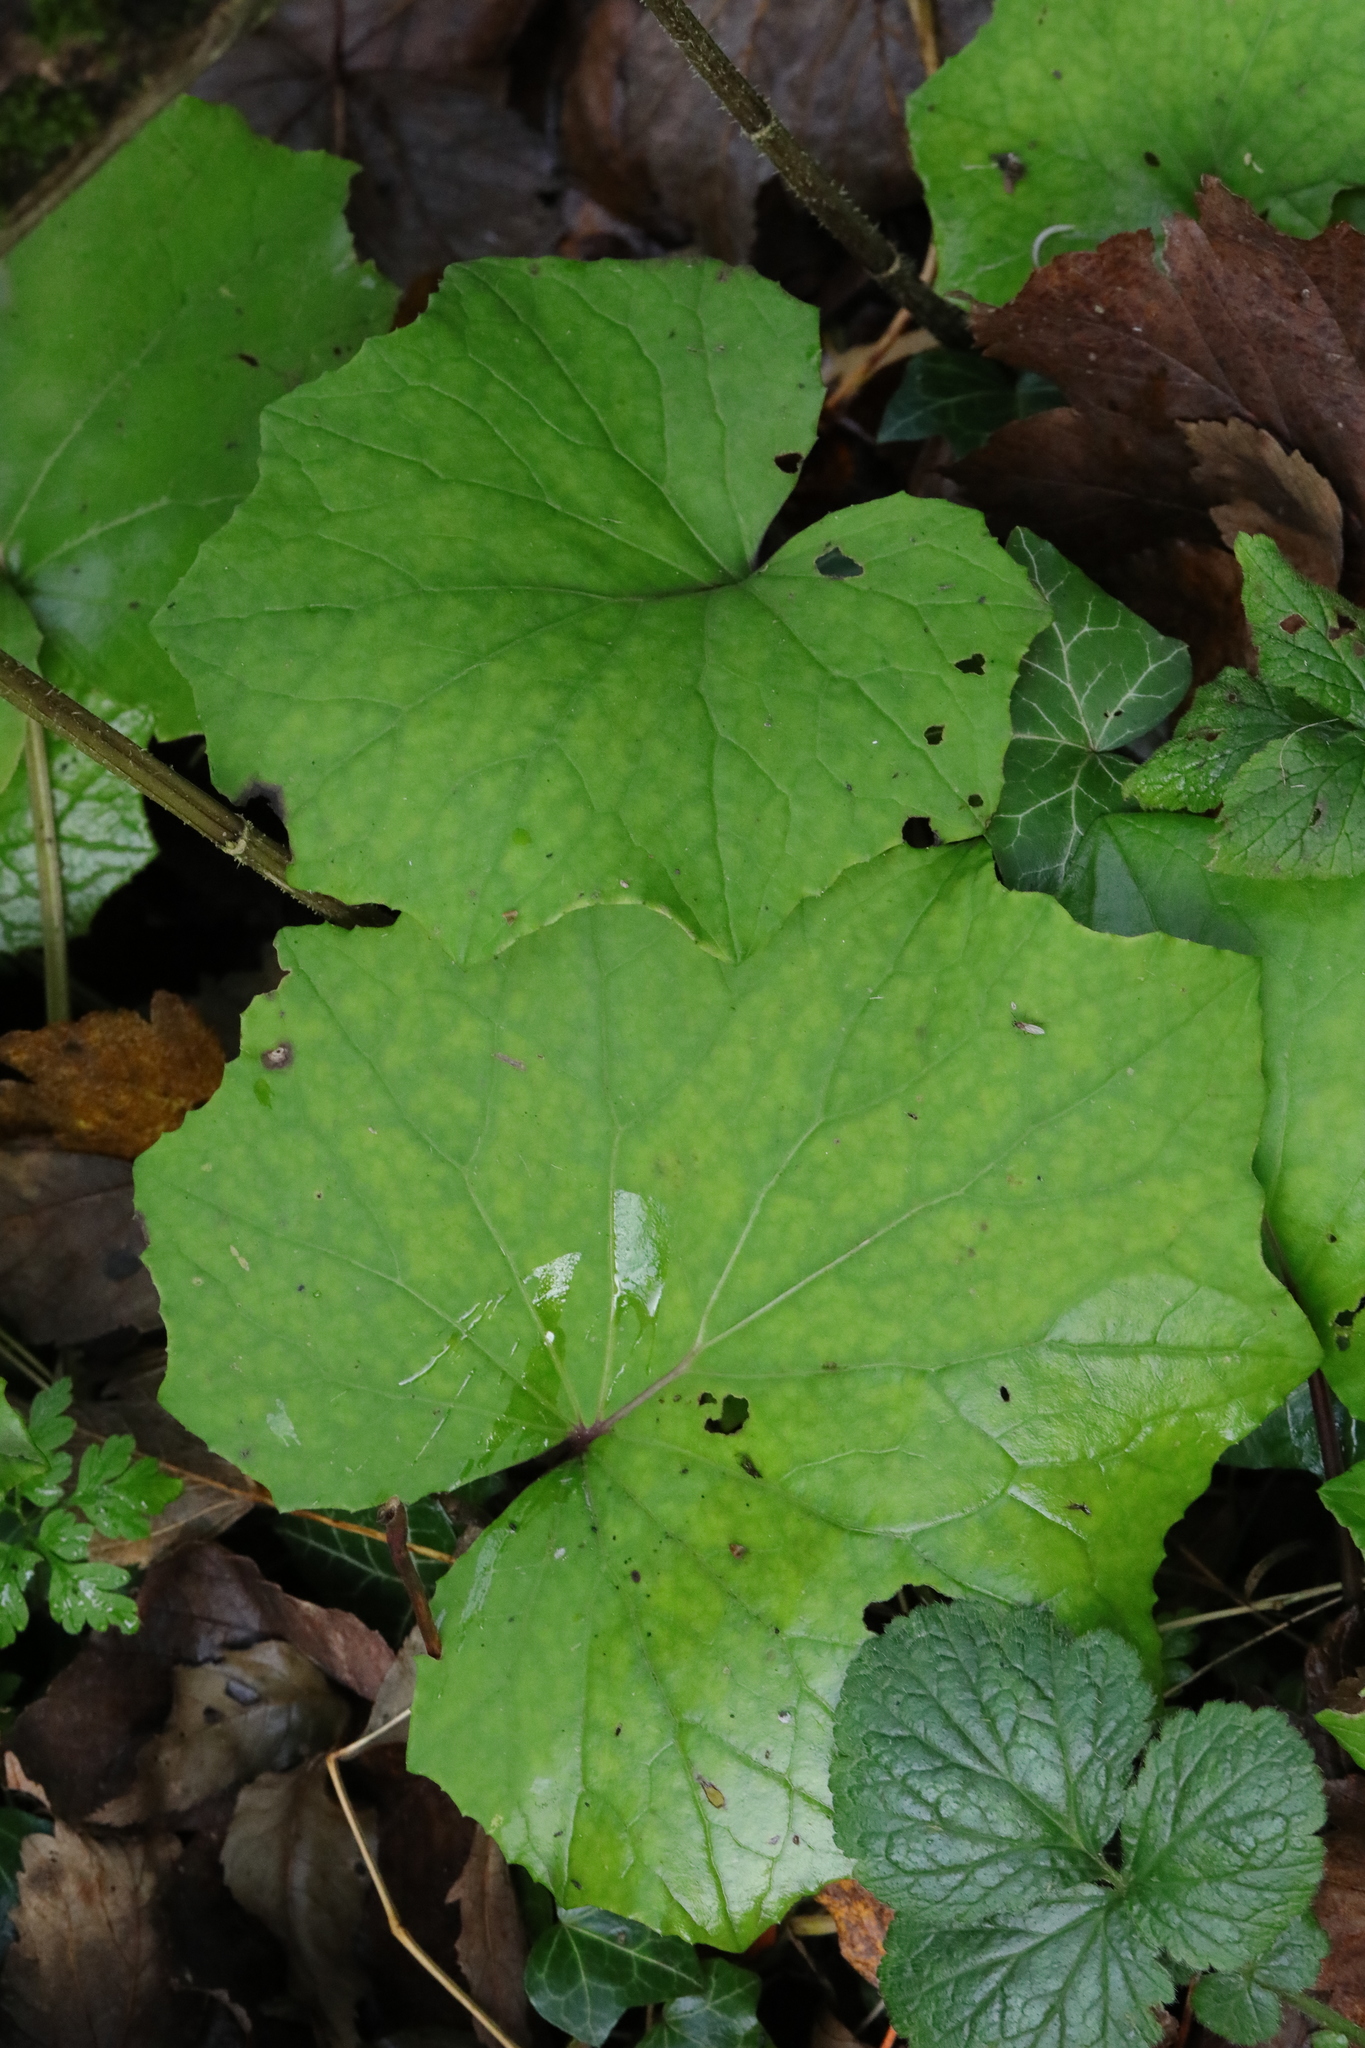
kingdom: Plantae
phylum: Tracheophyta
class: Magnoliopsida
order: Asterales
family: Asteraceae
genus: Tussilago
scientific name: Tussilago farfara
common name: Coltsfoot
